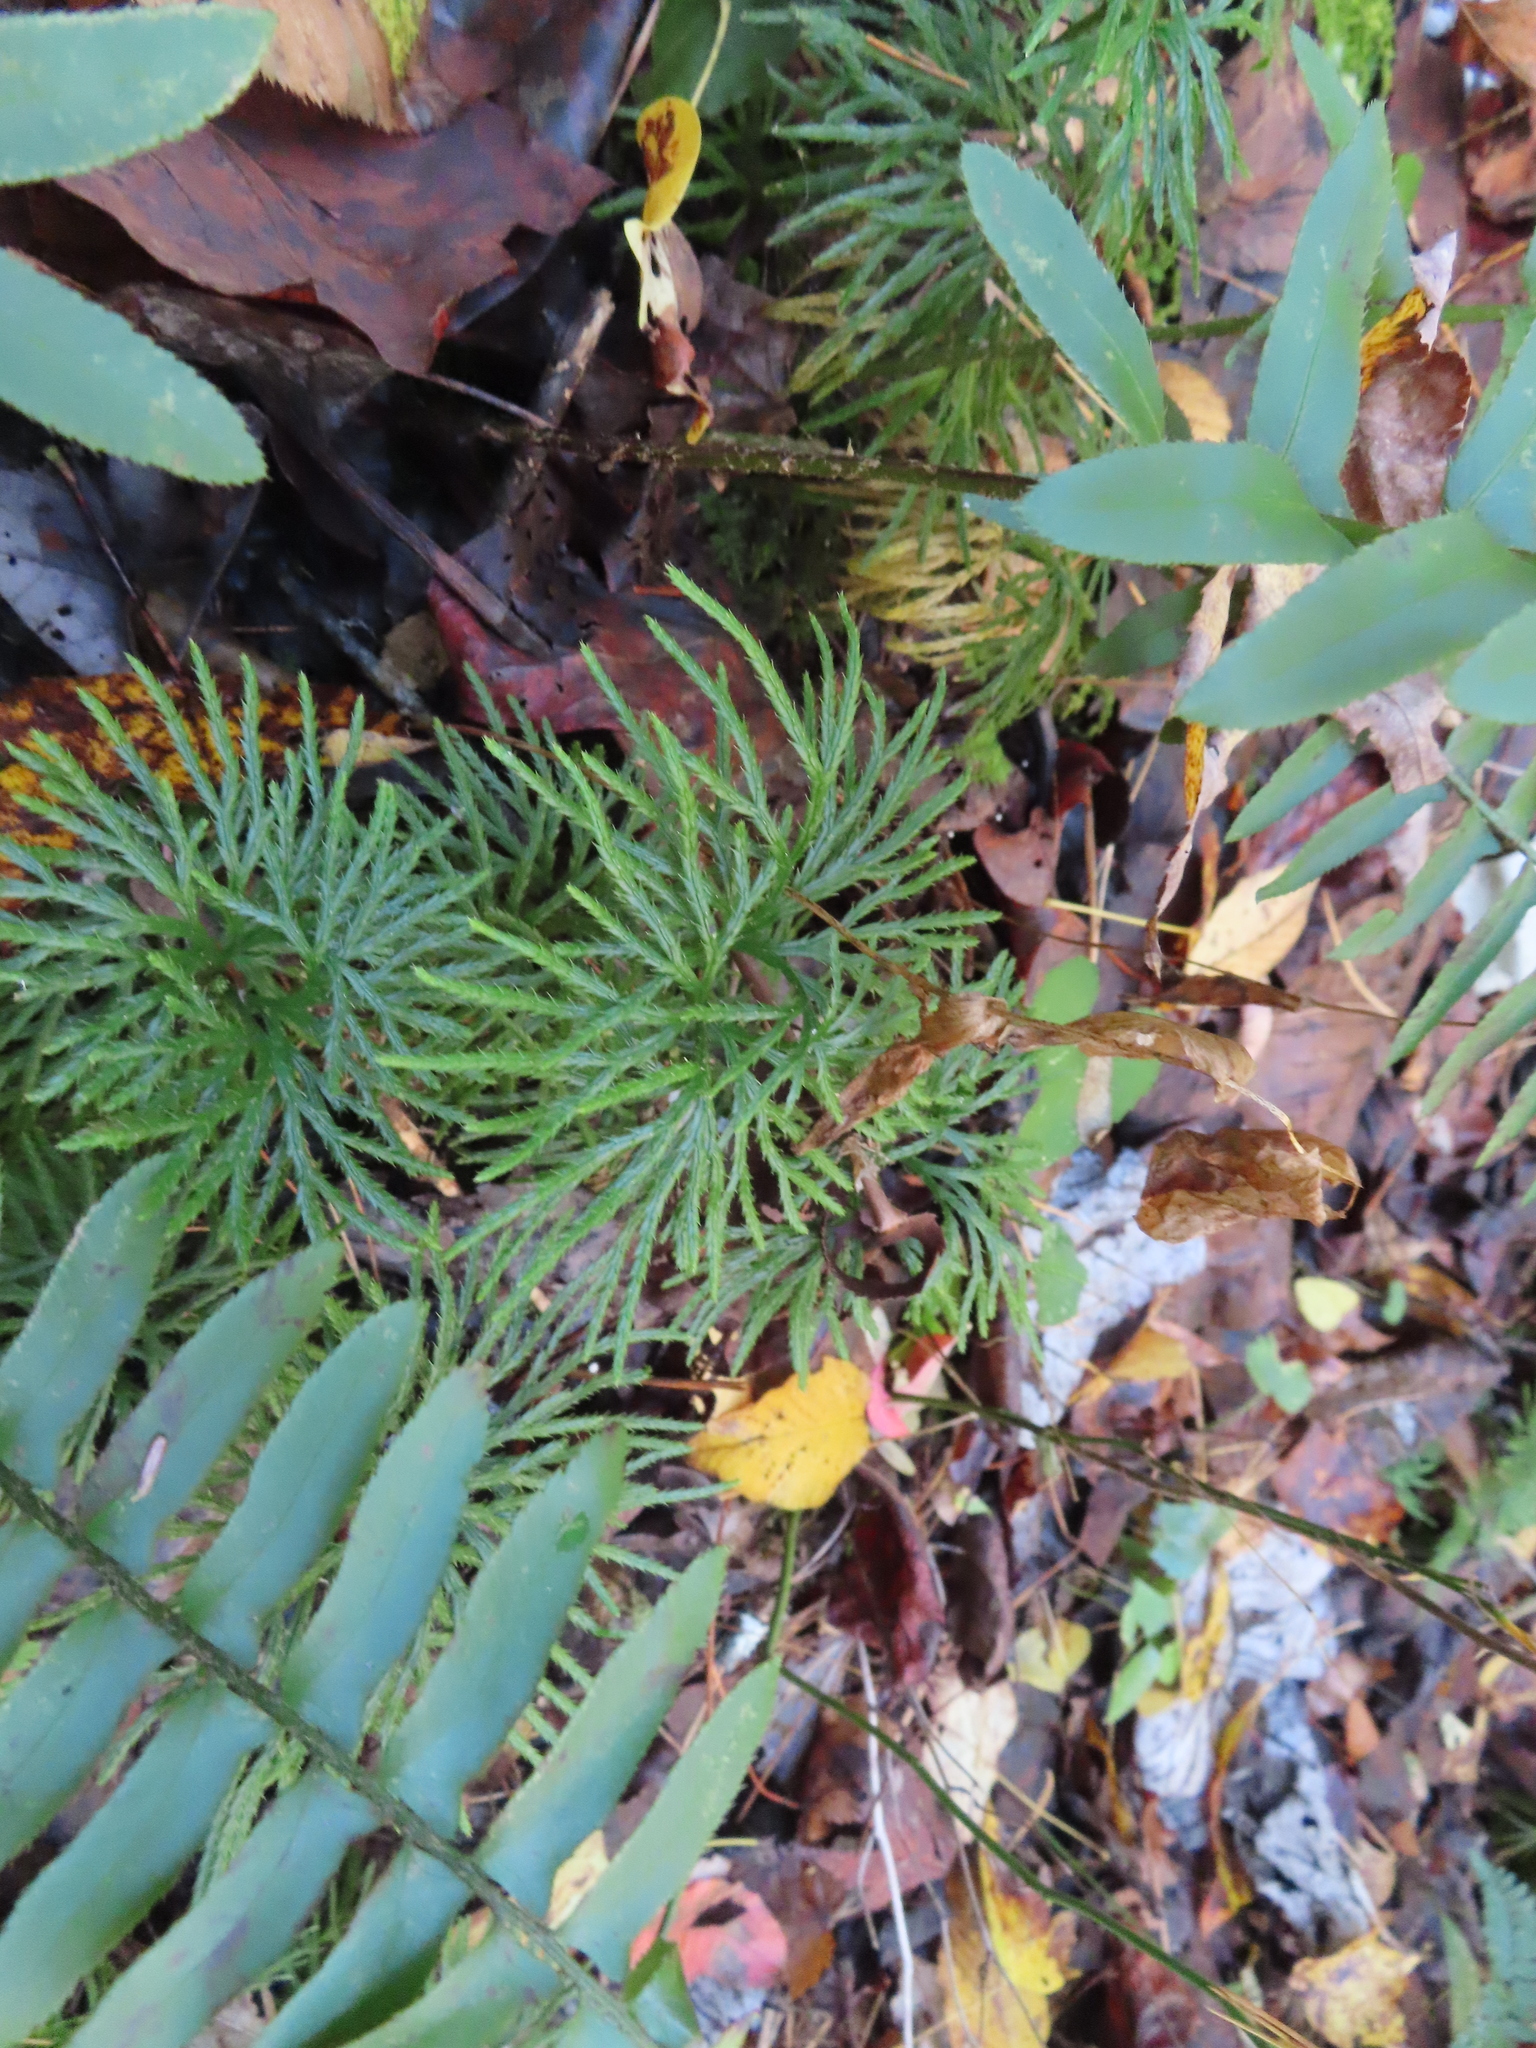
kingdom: Plantae
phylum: Tracheophyta
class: Lycopodiopsida
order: Lycopodiales
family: Lycopodiaceae
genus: Diphasiastrum
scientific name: Diphasiastrum digitatum
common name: Southern running-pine
